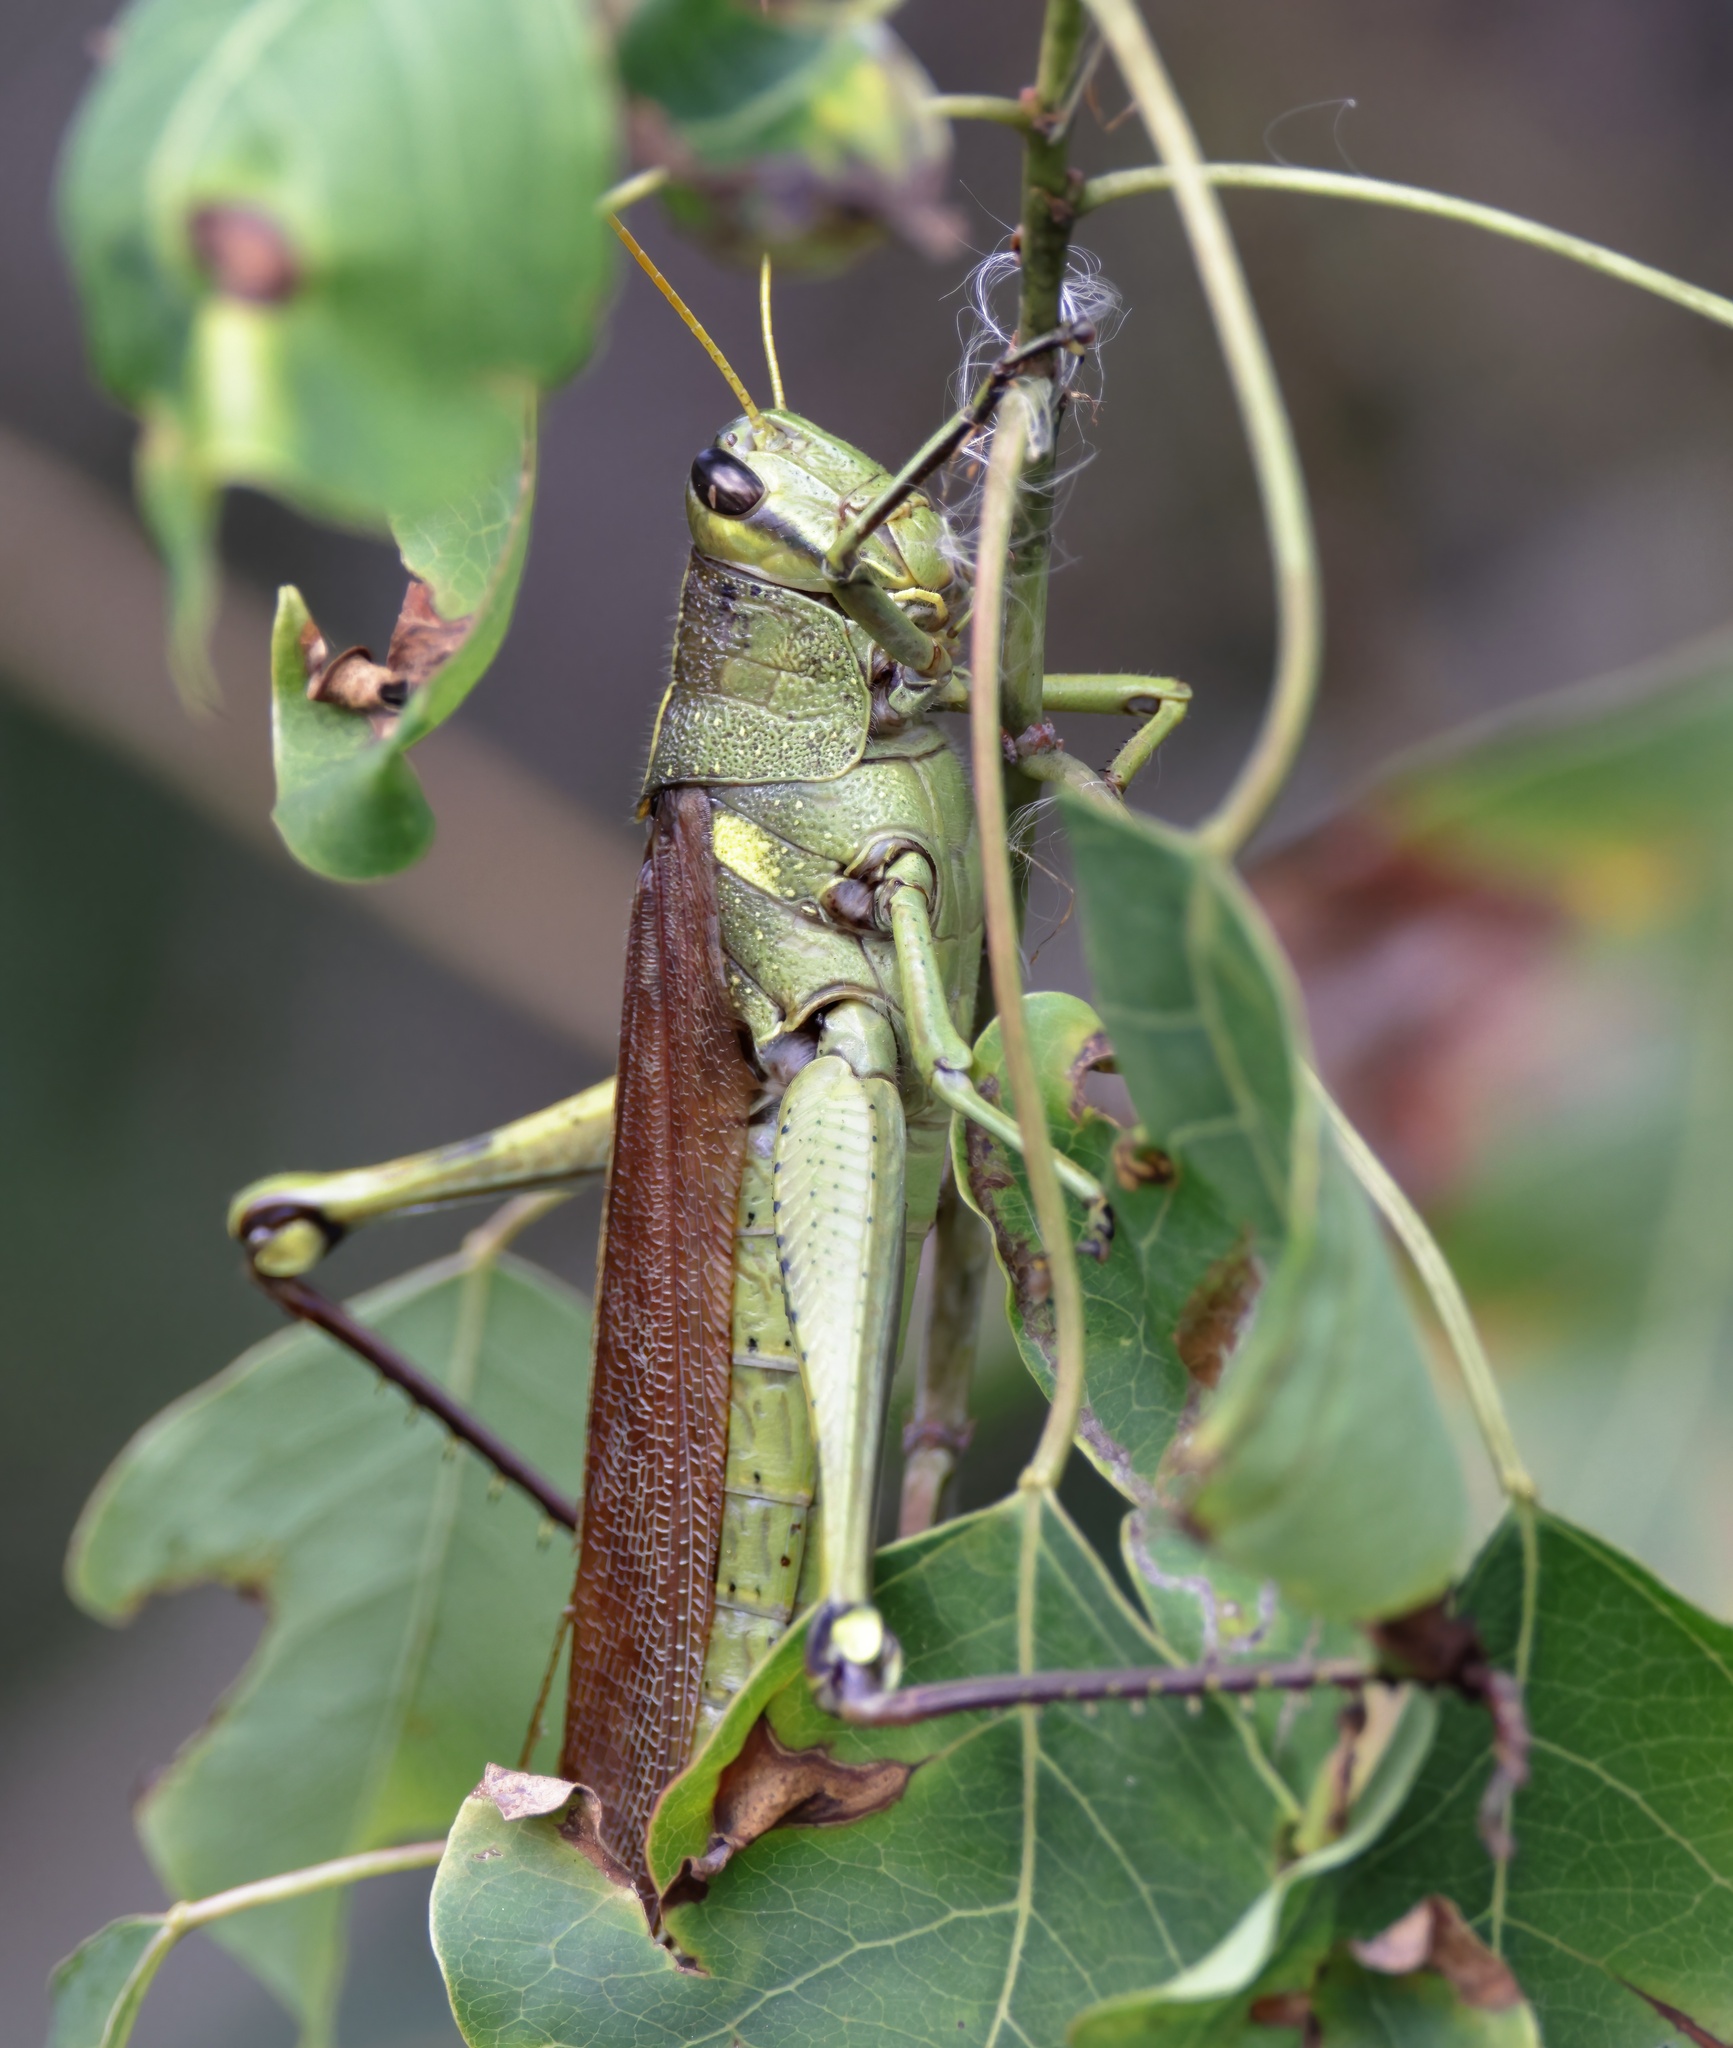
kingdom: Animalia
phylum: Arthropoda
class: Insecta
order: Orthoptera
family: Acrididae
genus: Schistocerca
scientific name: Schistocerca obscura
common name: Obscure bird grasshopper
